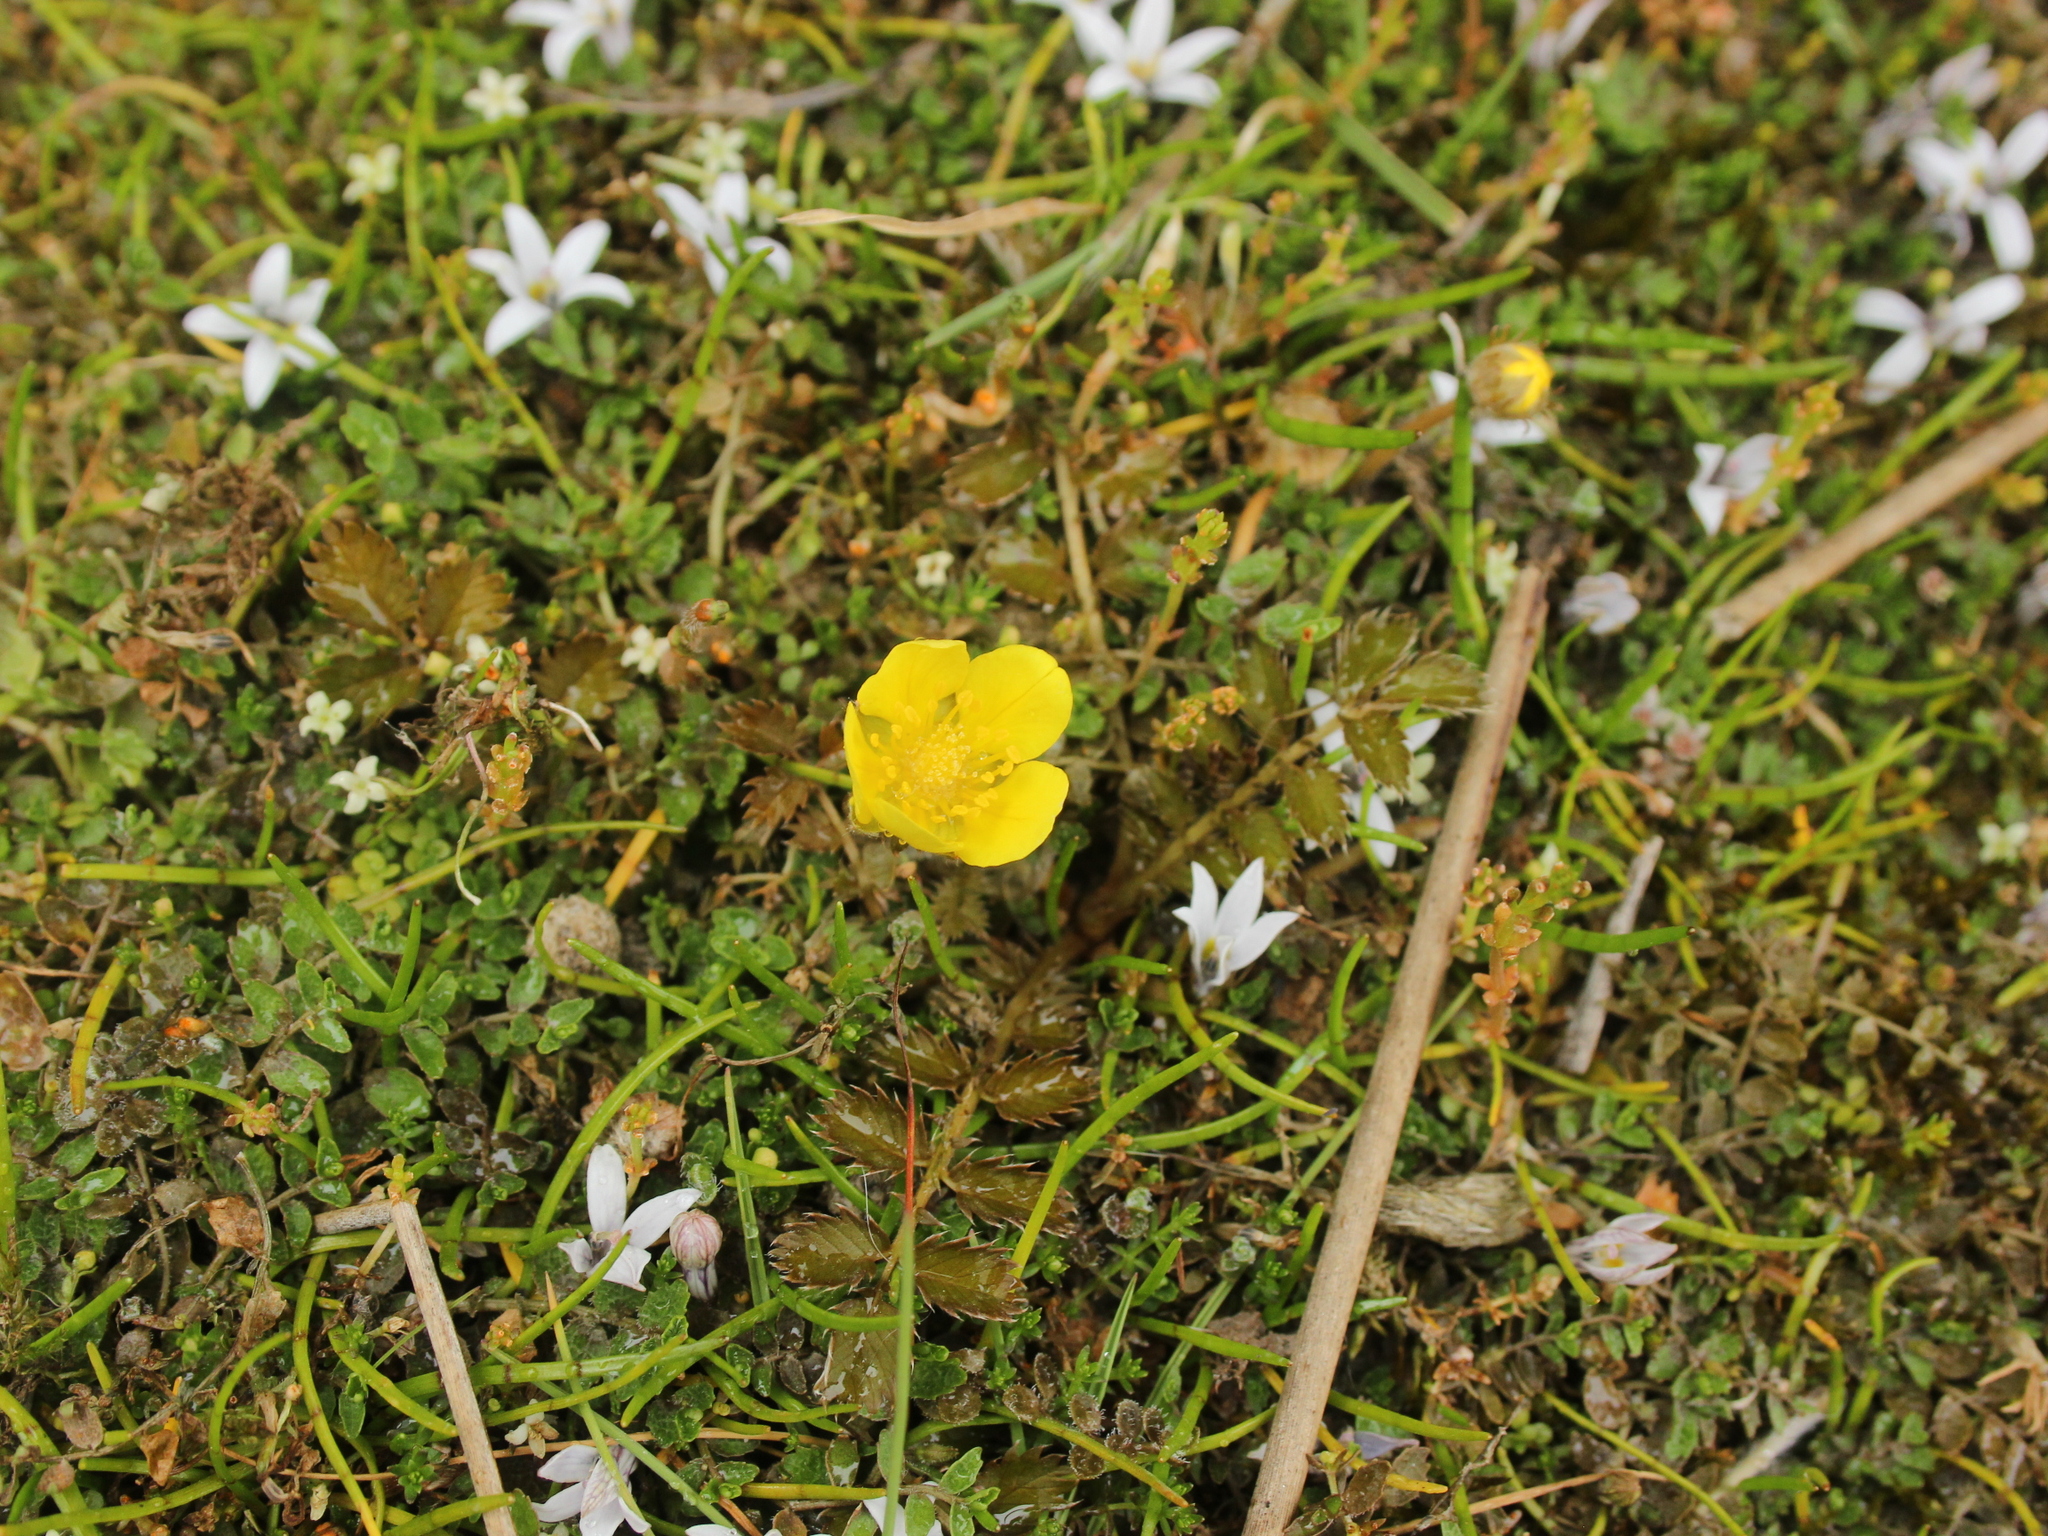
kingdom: Plantae
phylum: Tracheophyta
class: Magnoliopsida
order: Rosales
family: Rosaceae
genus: Argentina
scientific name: Argentina anserinoides
